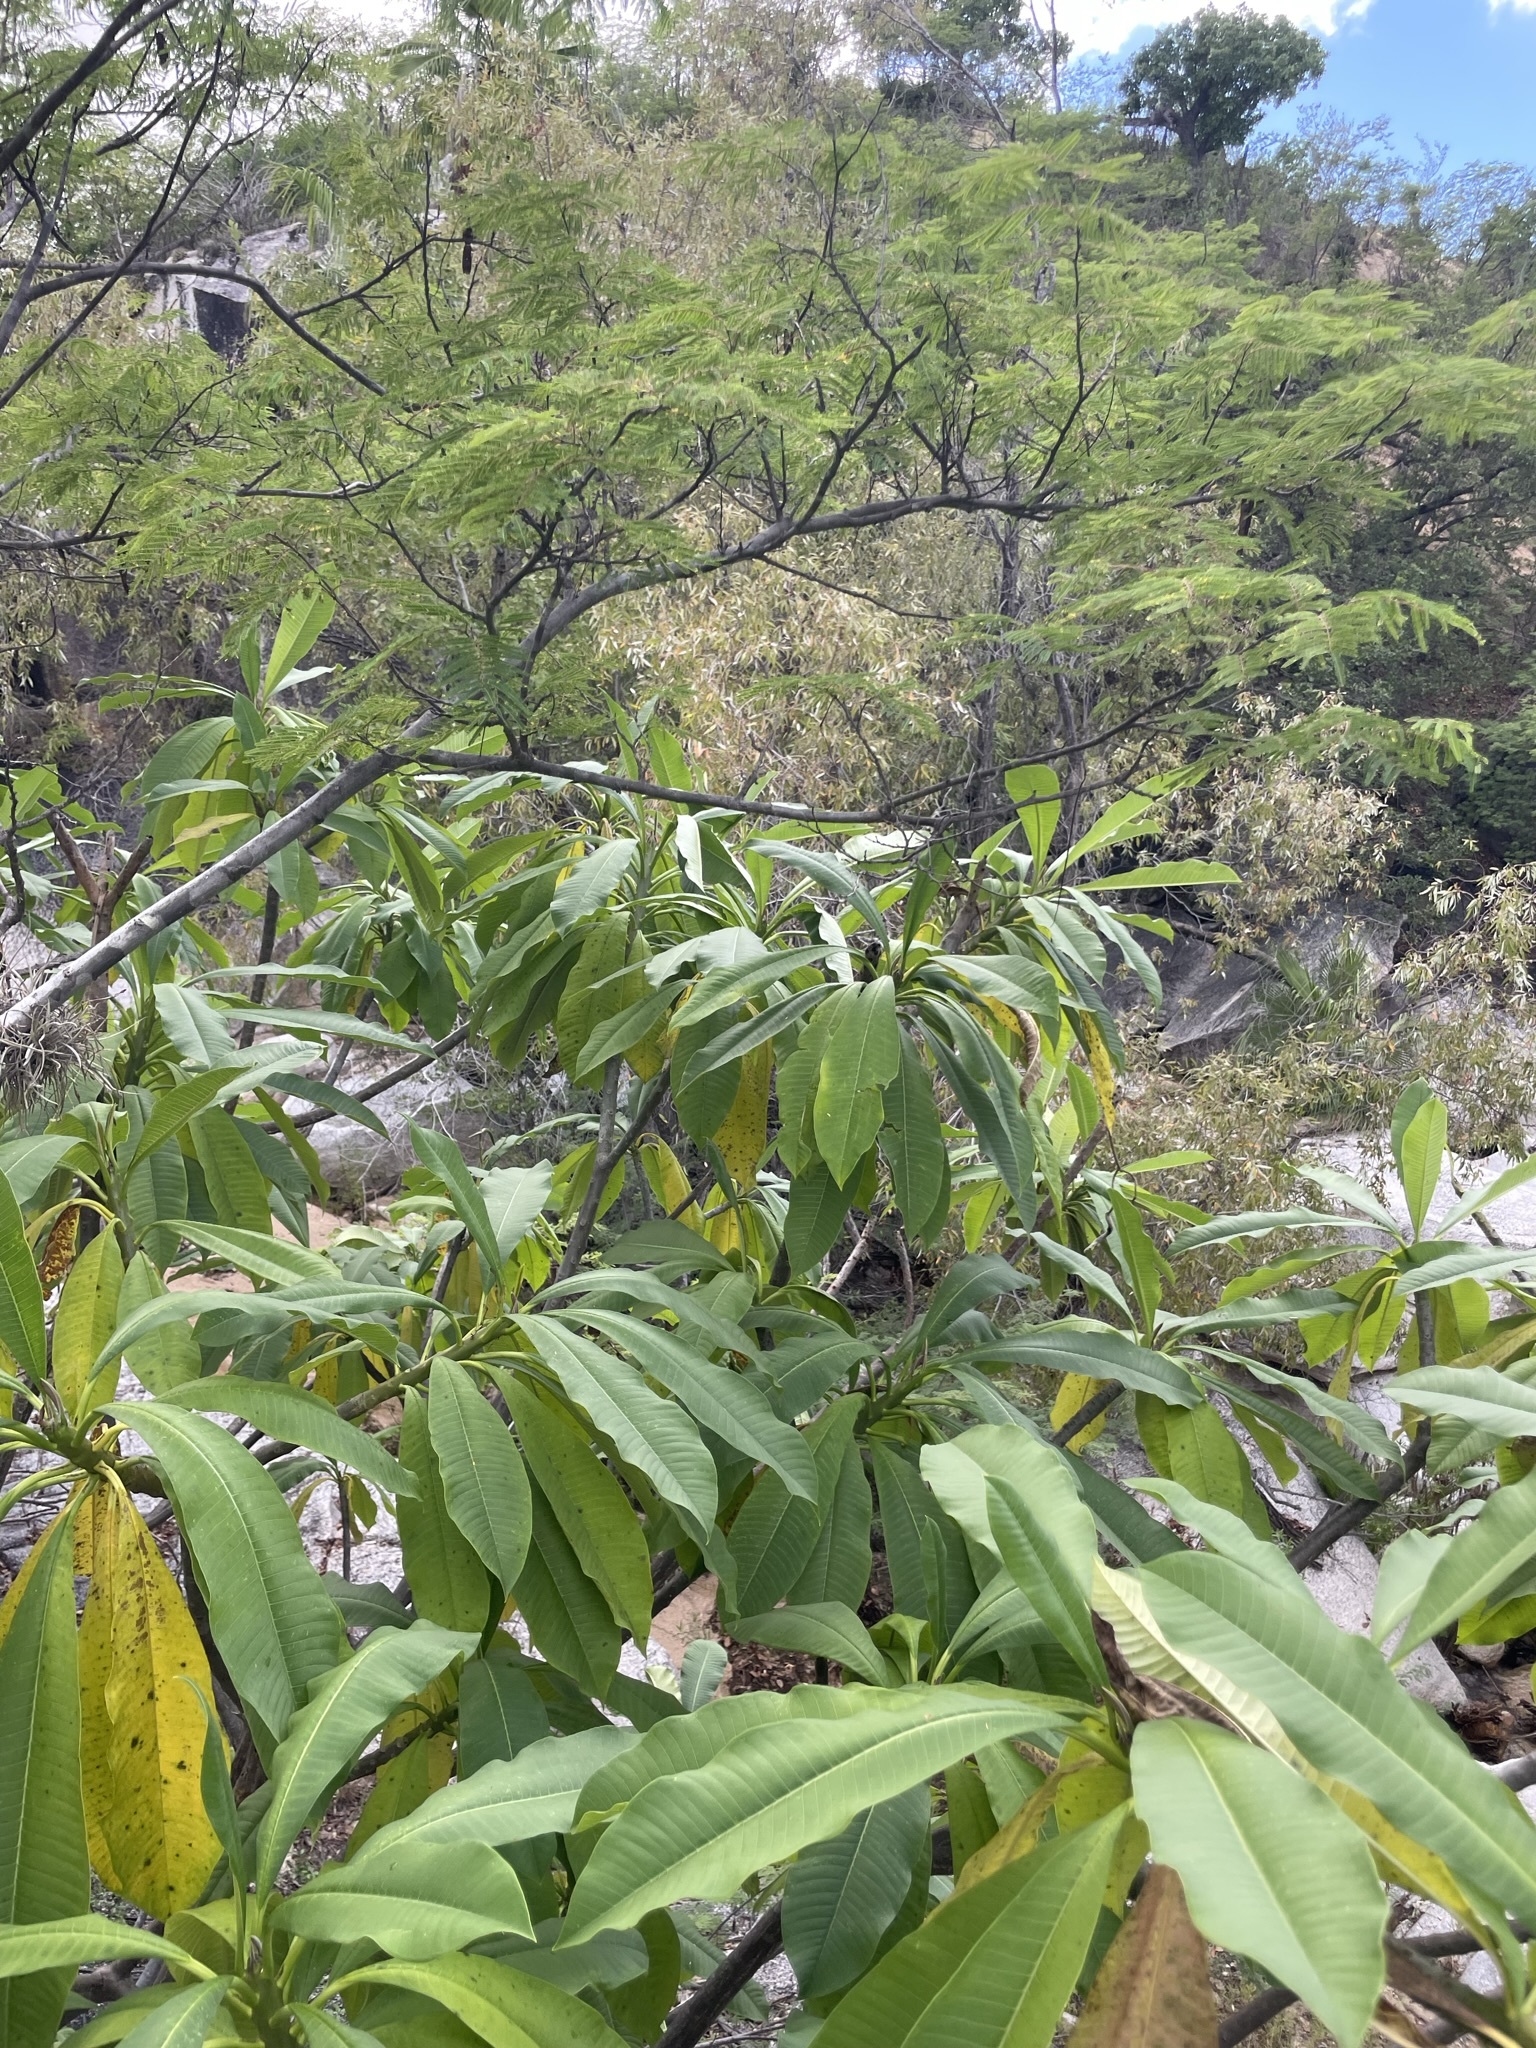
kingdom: Plantae
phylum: Tracheophyta
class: Magnoliopsida
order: Gentianales
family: Apocynaceae
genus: Plumeria
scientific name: Plumeria rubra
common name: Pagoda-tree
